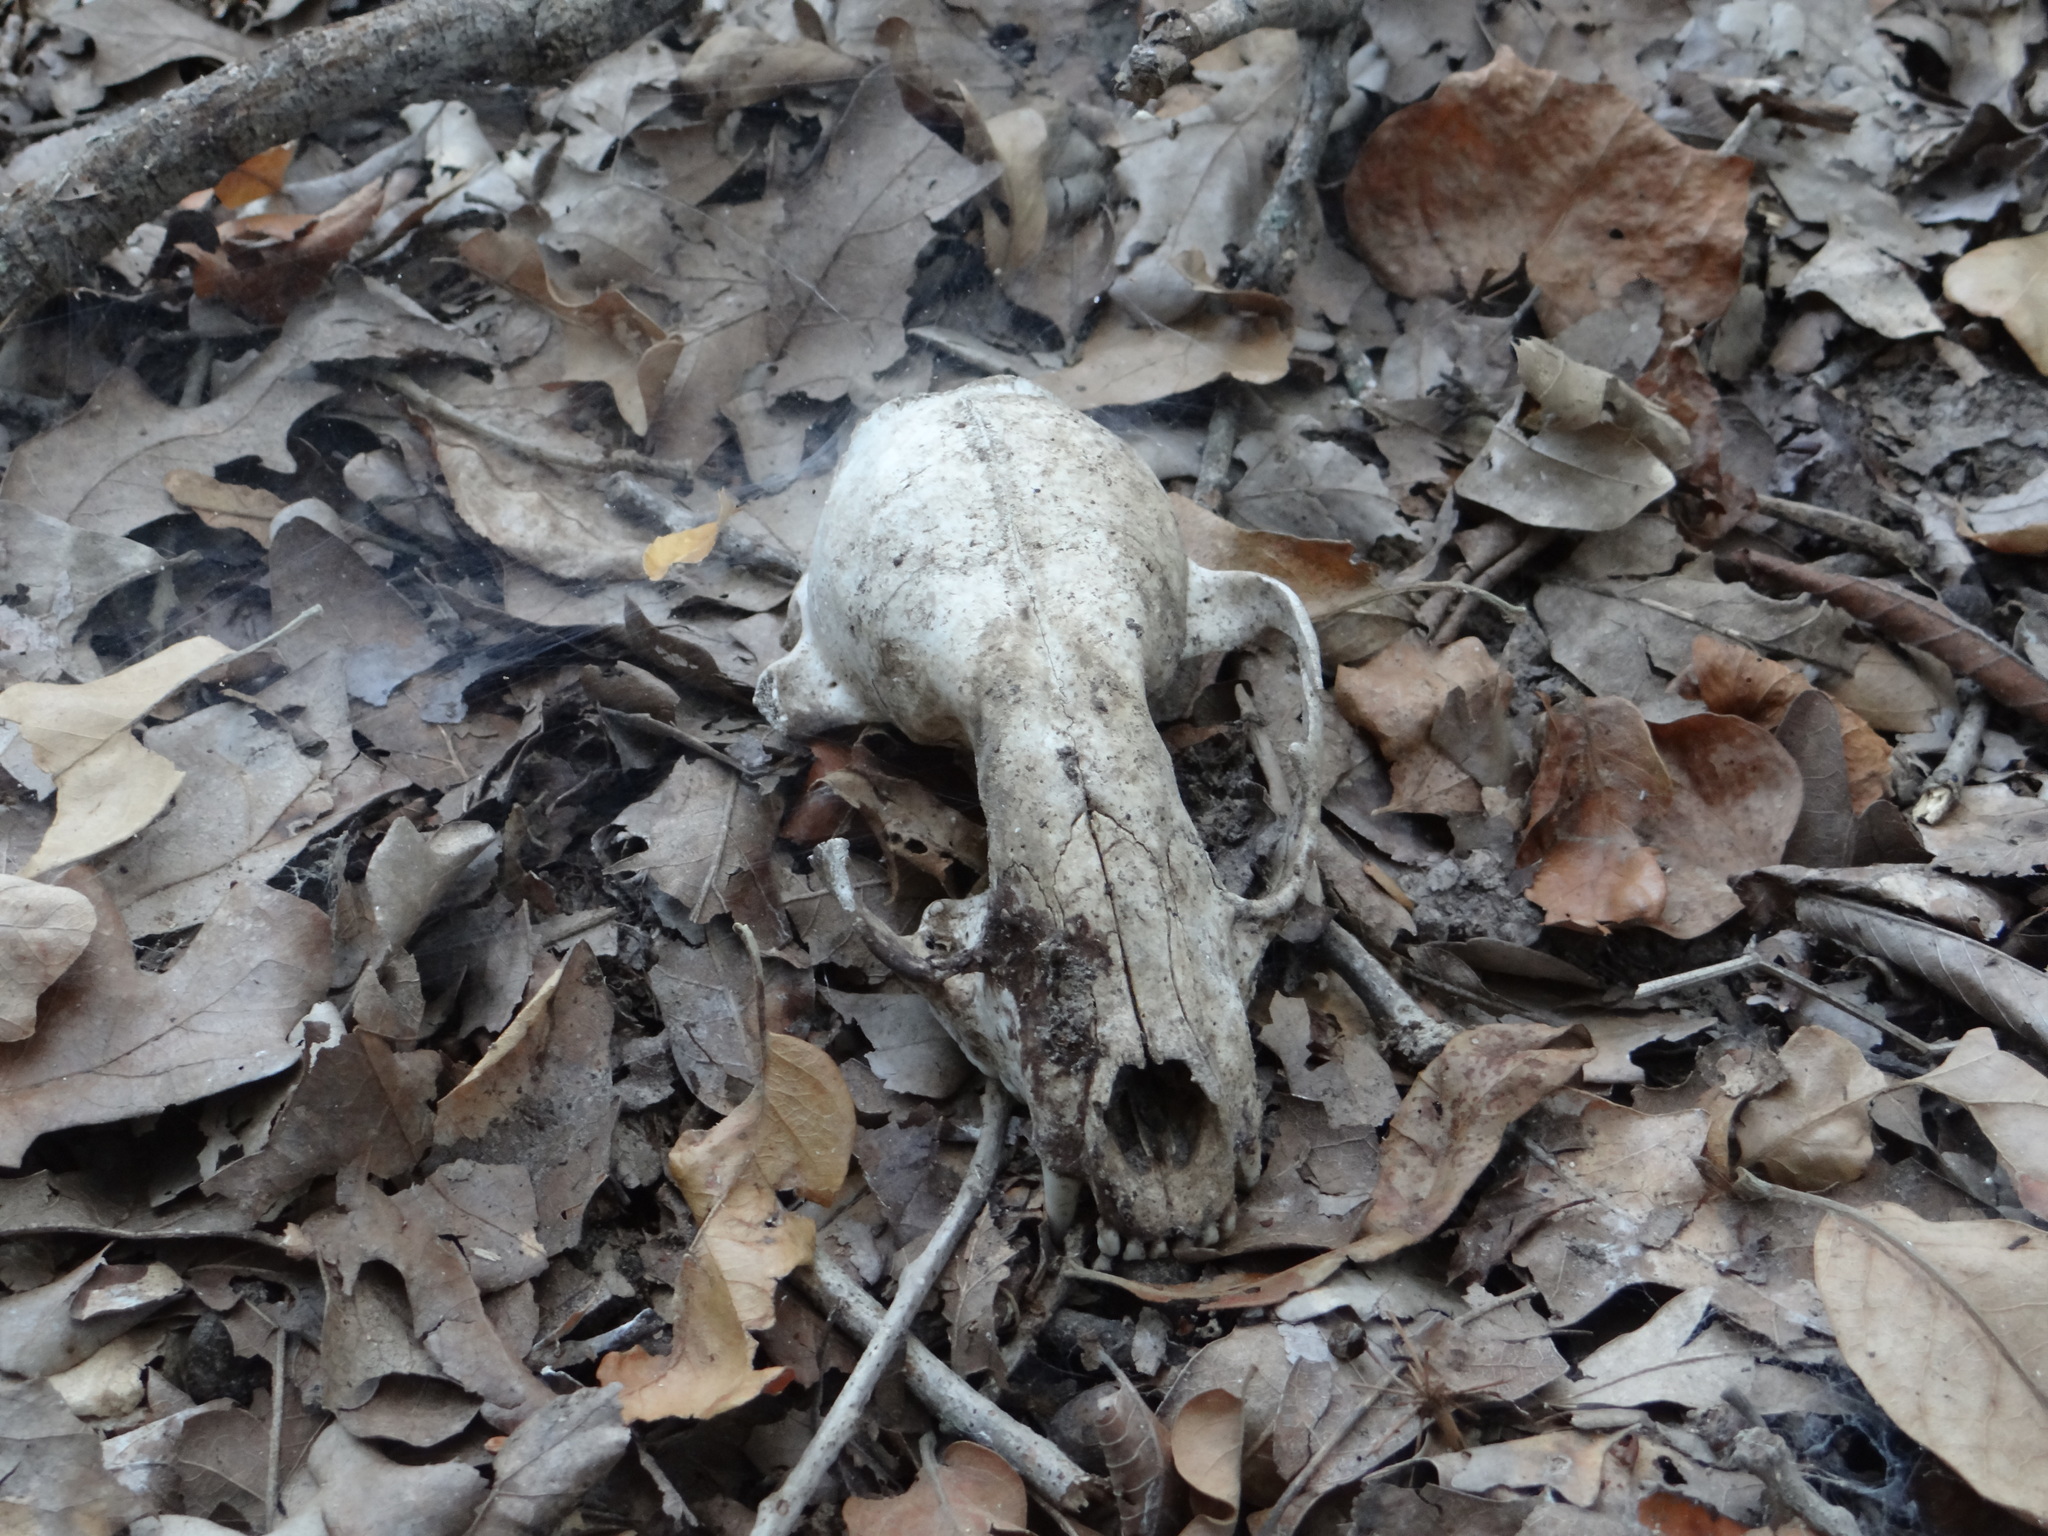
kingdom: Animalia
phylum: Chordata
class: Mammalia
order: Carnivora
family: Procyonidae
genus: Procyon
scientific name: Procyon lotor
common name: Raccoon
